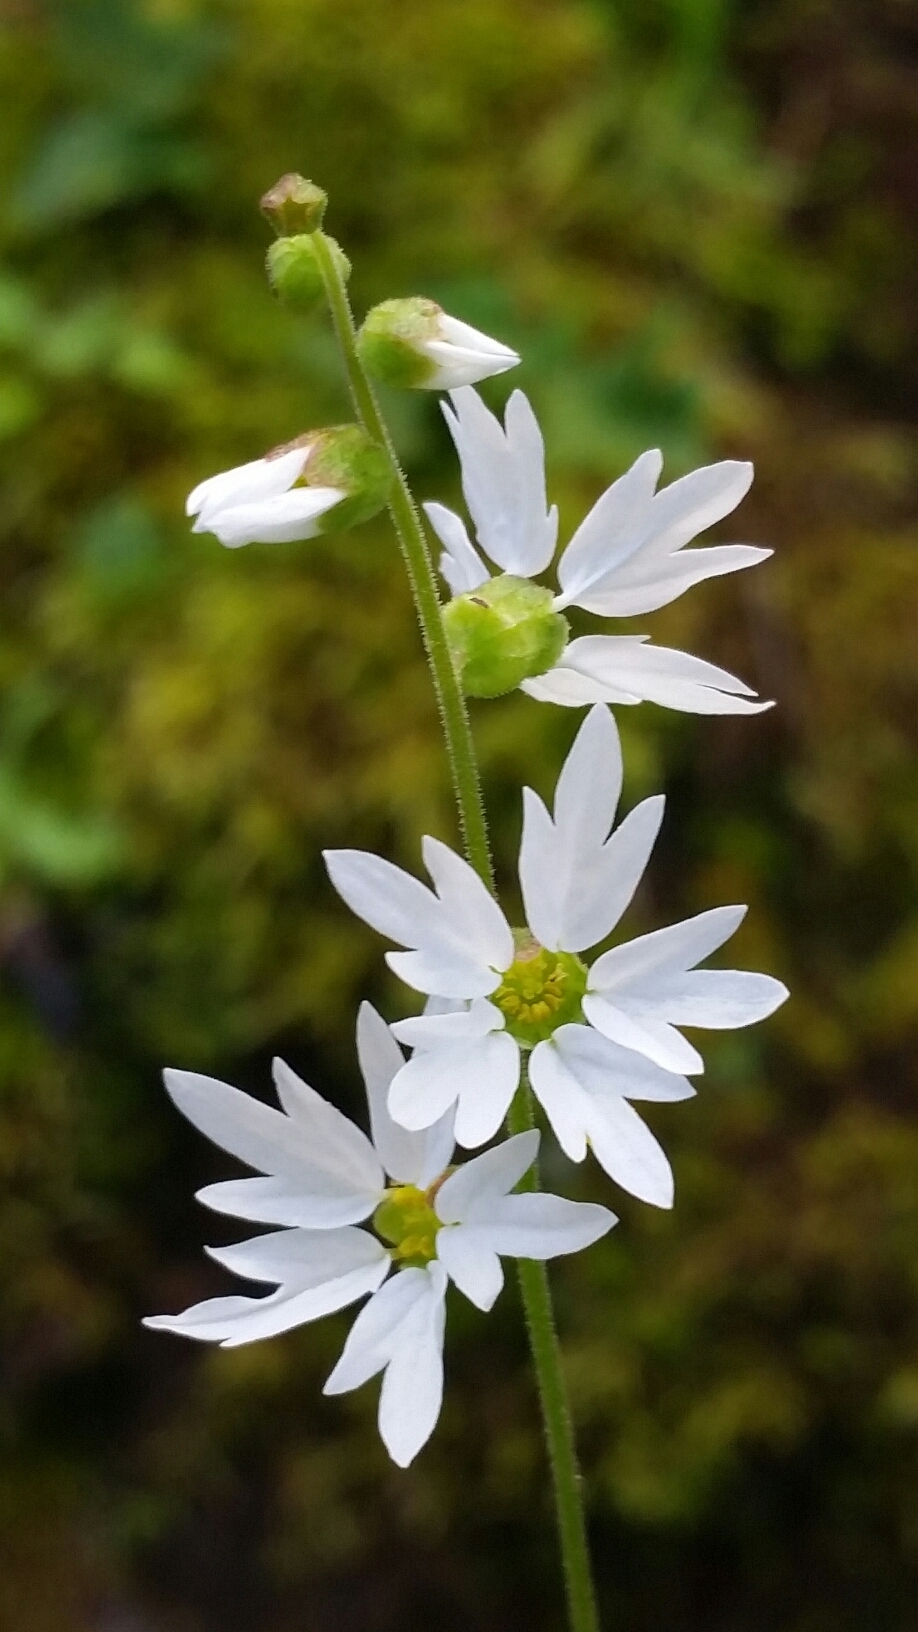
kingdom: Plantae
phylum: Tracheophyta
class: Magnoliopsida
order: Saxifragales
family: Saxifragaceae
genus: Lithophragma
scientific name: Lithophragma heterophyllum
